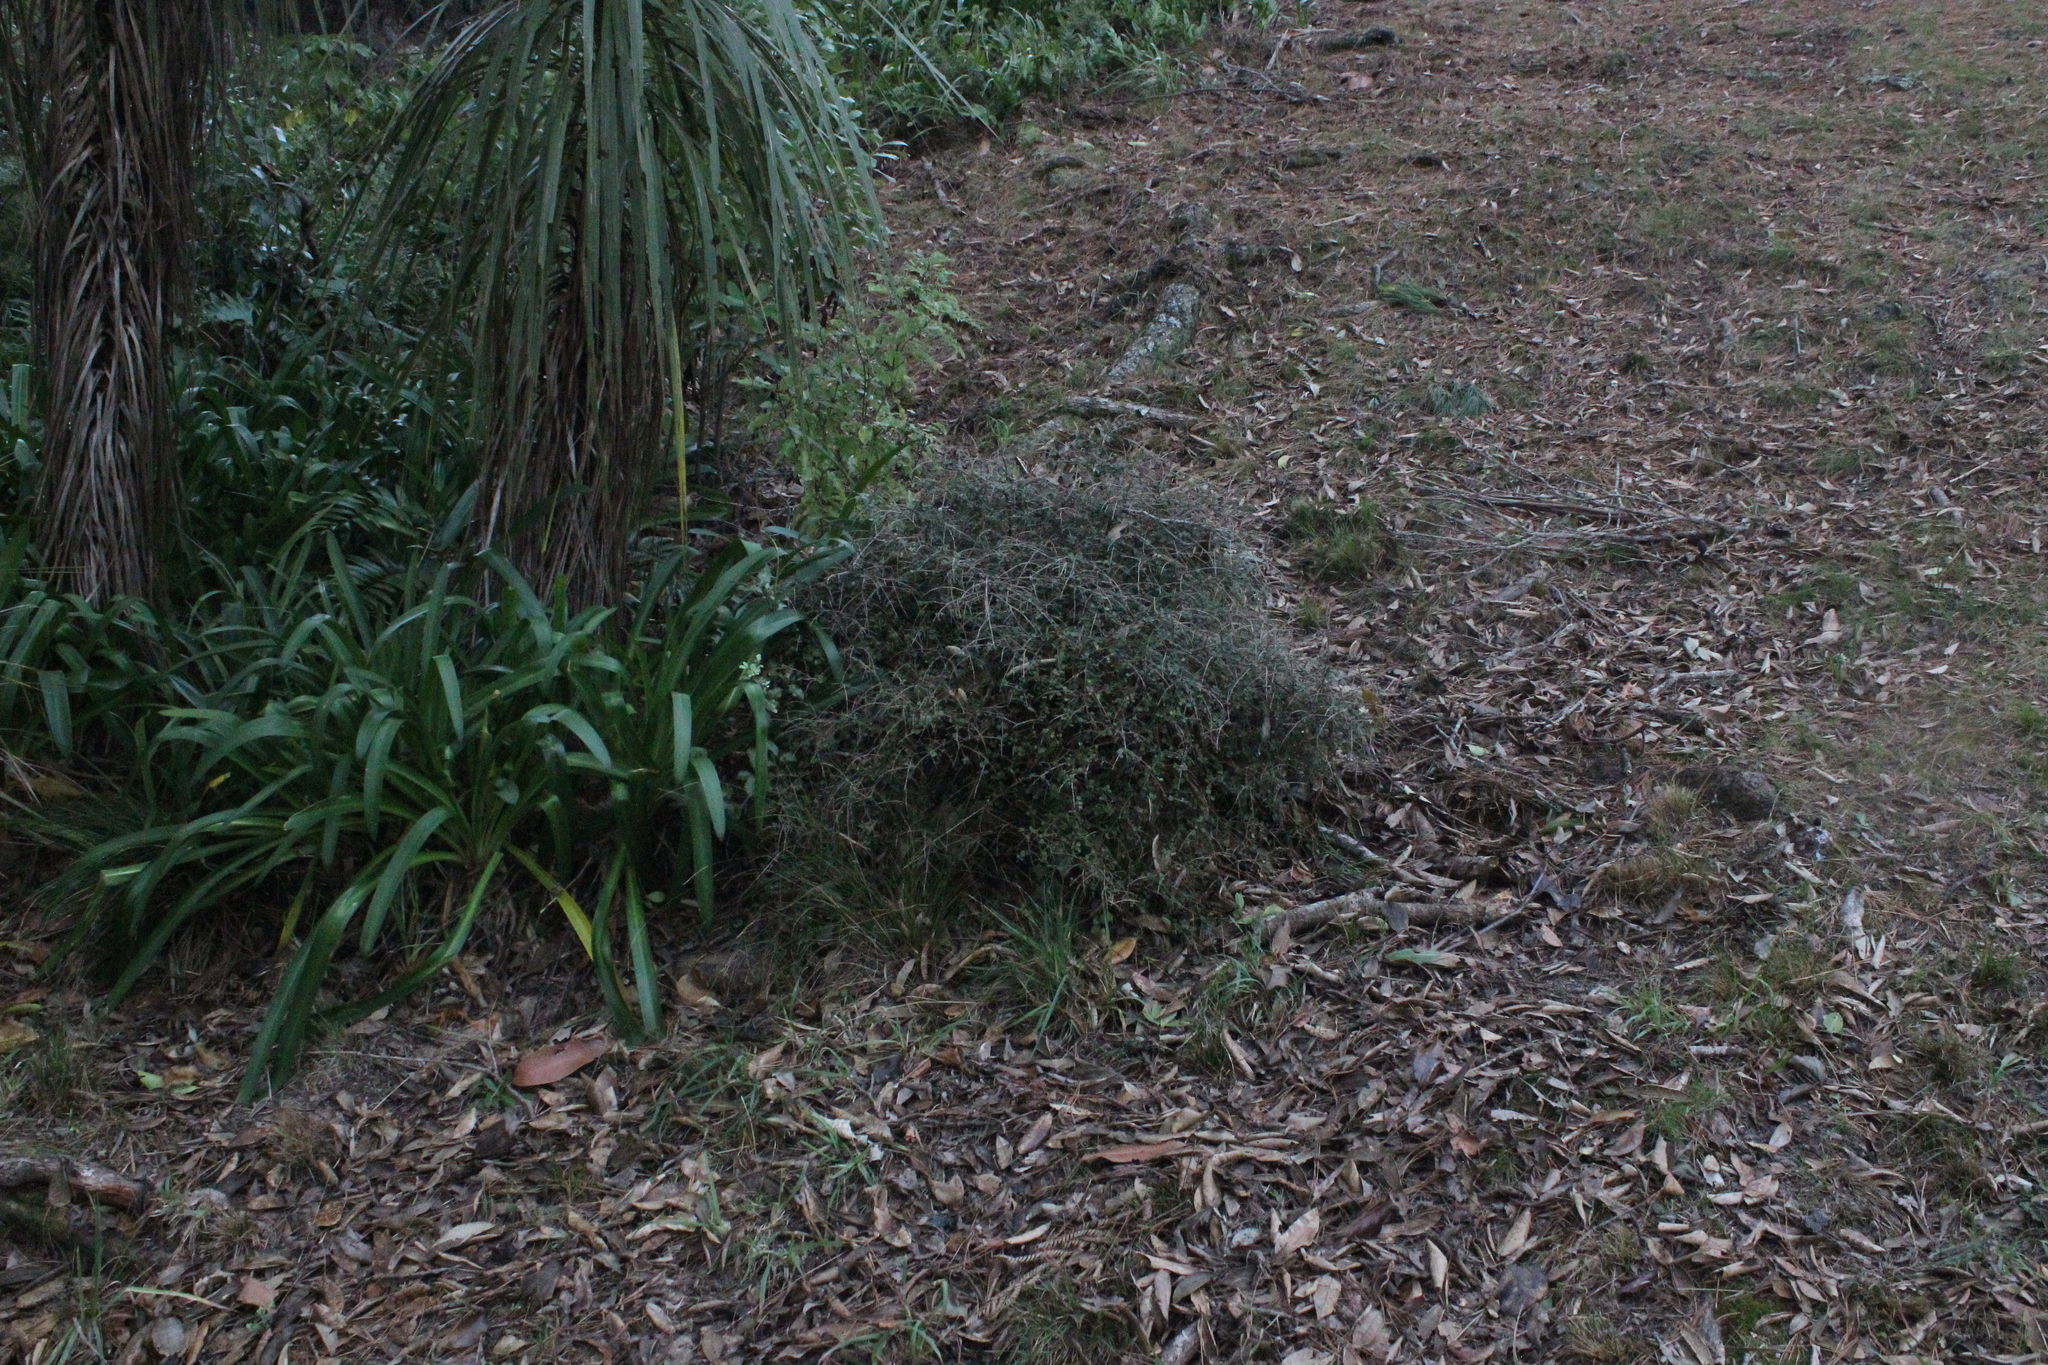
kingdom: Plantae
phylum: Tracheophyta
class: Magnoliopsida
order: Gentianales
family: Rubiaceae
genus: Coprosma
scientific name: Coprosma rhamnoides
